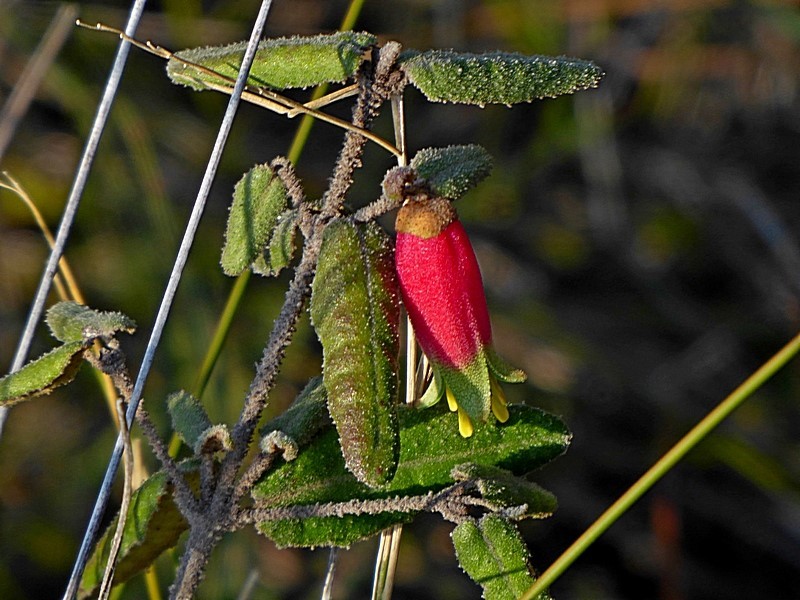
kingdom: Plantae
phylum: Tracheophyta
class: Magnoliopsida
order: Sapindales
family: Rutaceae
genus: Correa
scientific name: Correa reflexa
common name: Common correa
